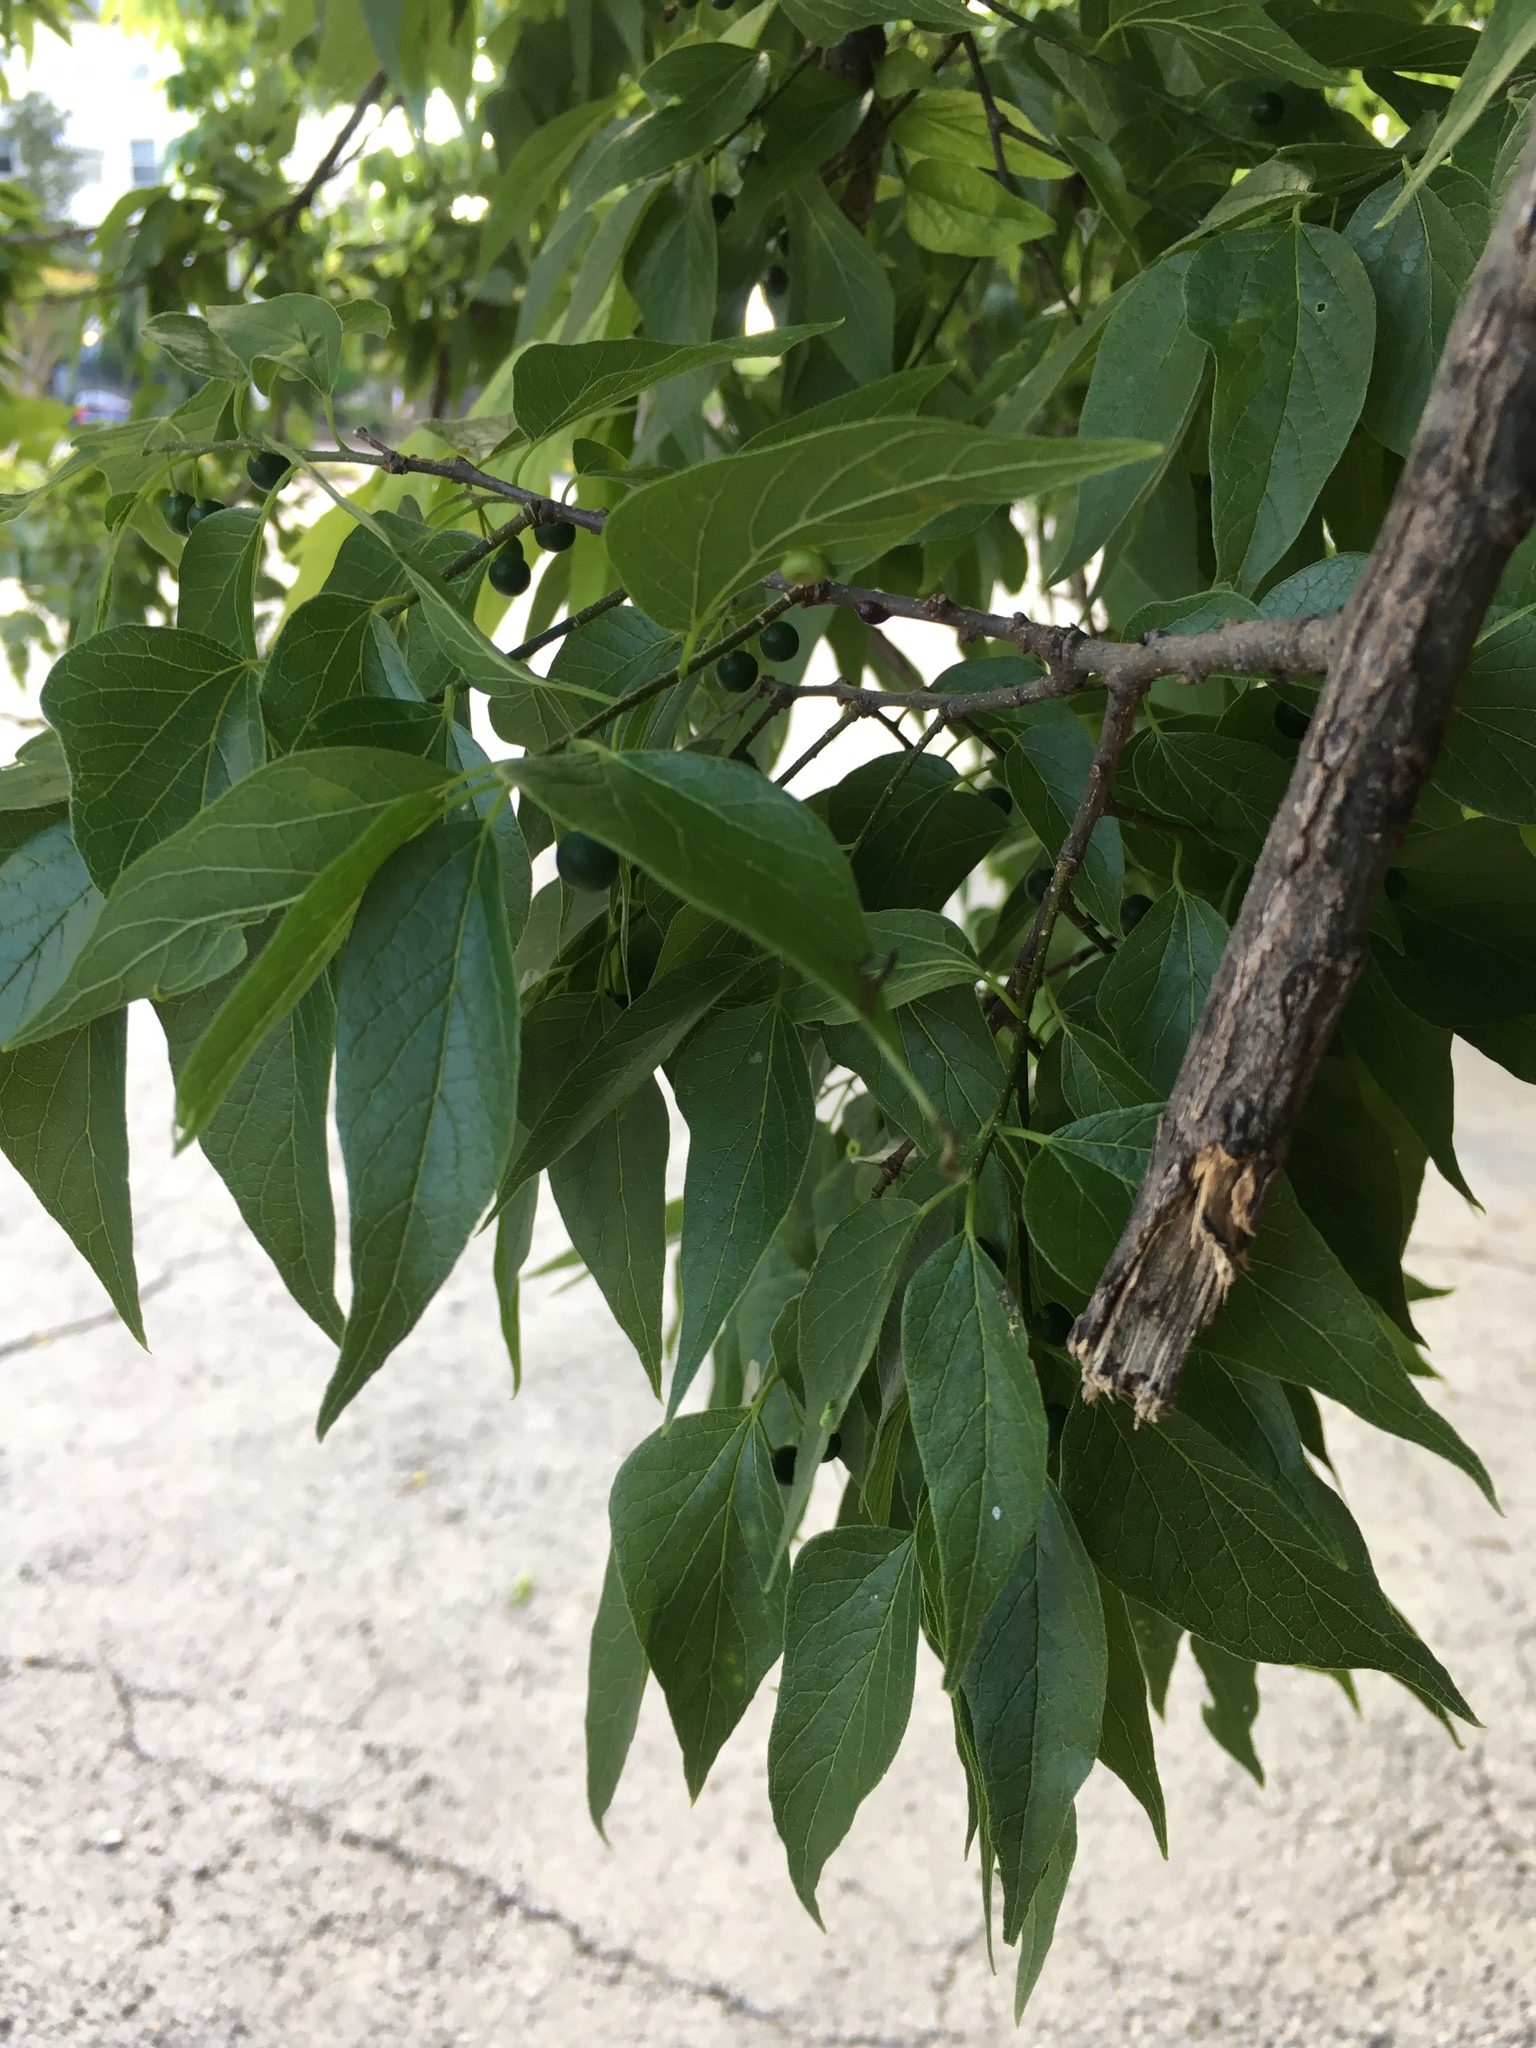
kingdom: Plantae
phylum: Tracheophyta
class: Magnoliopsida
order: Rosales
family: Cannabaceae
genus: Celtis
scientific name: Celtis laevigata
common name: Sugarberry
